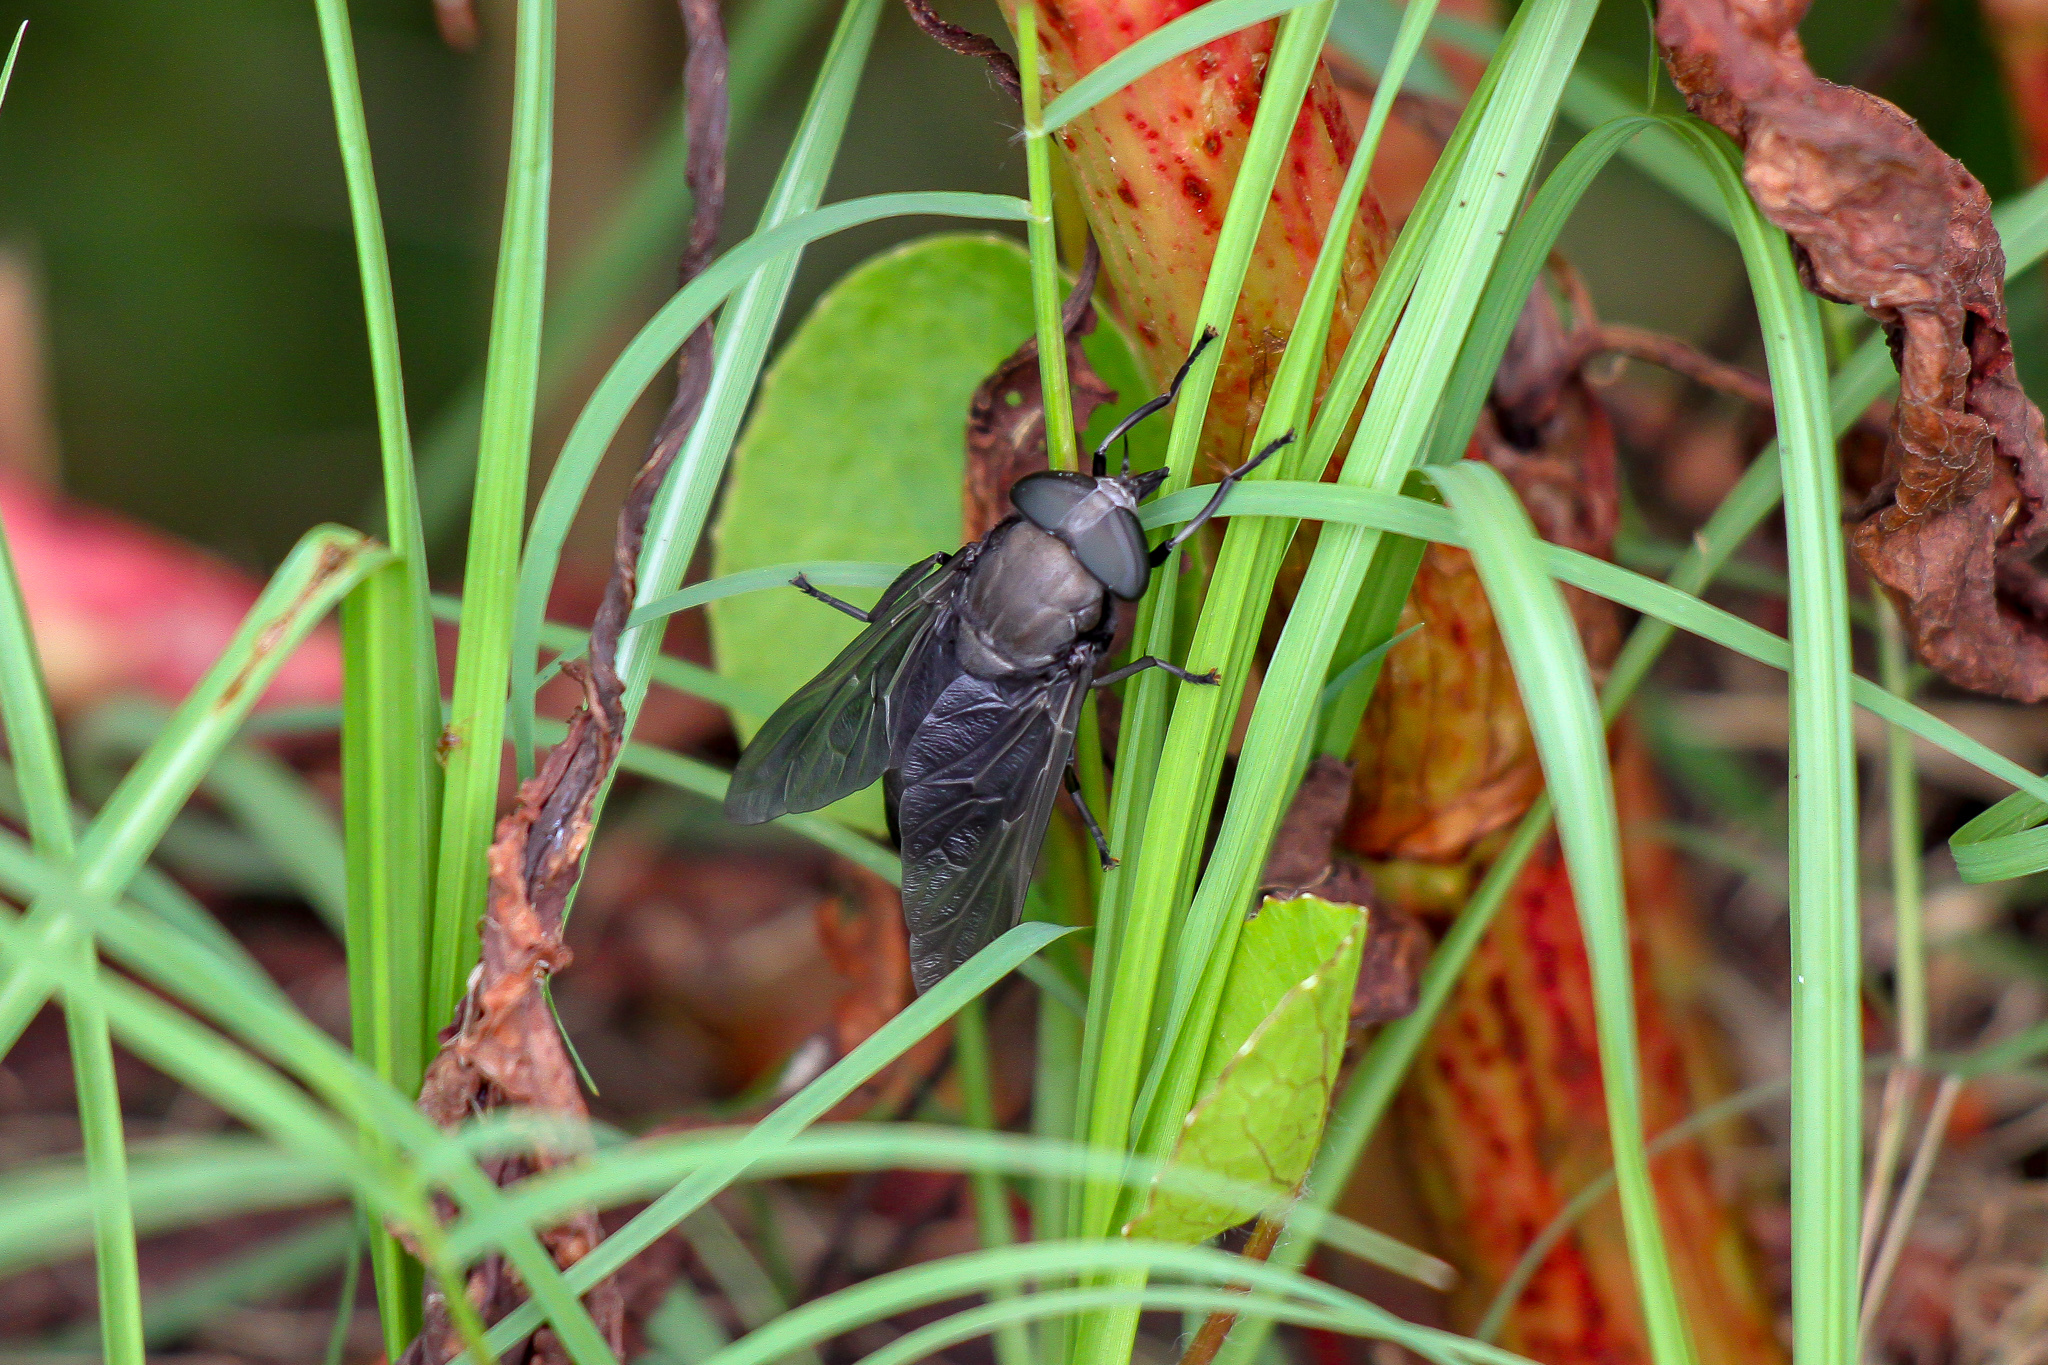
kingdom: Animalia
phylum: Arthropoda
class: Insecta
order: Diptera
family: Tabanidae
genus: Tabanus
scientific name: Tabanus atratus
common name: Black horse fly
